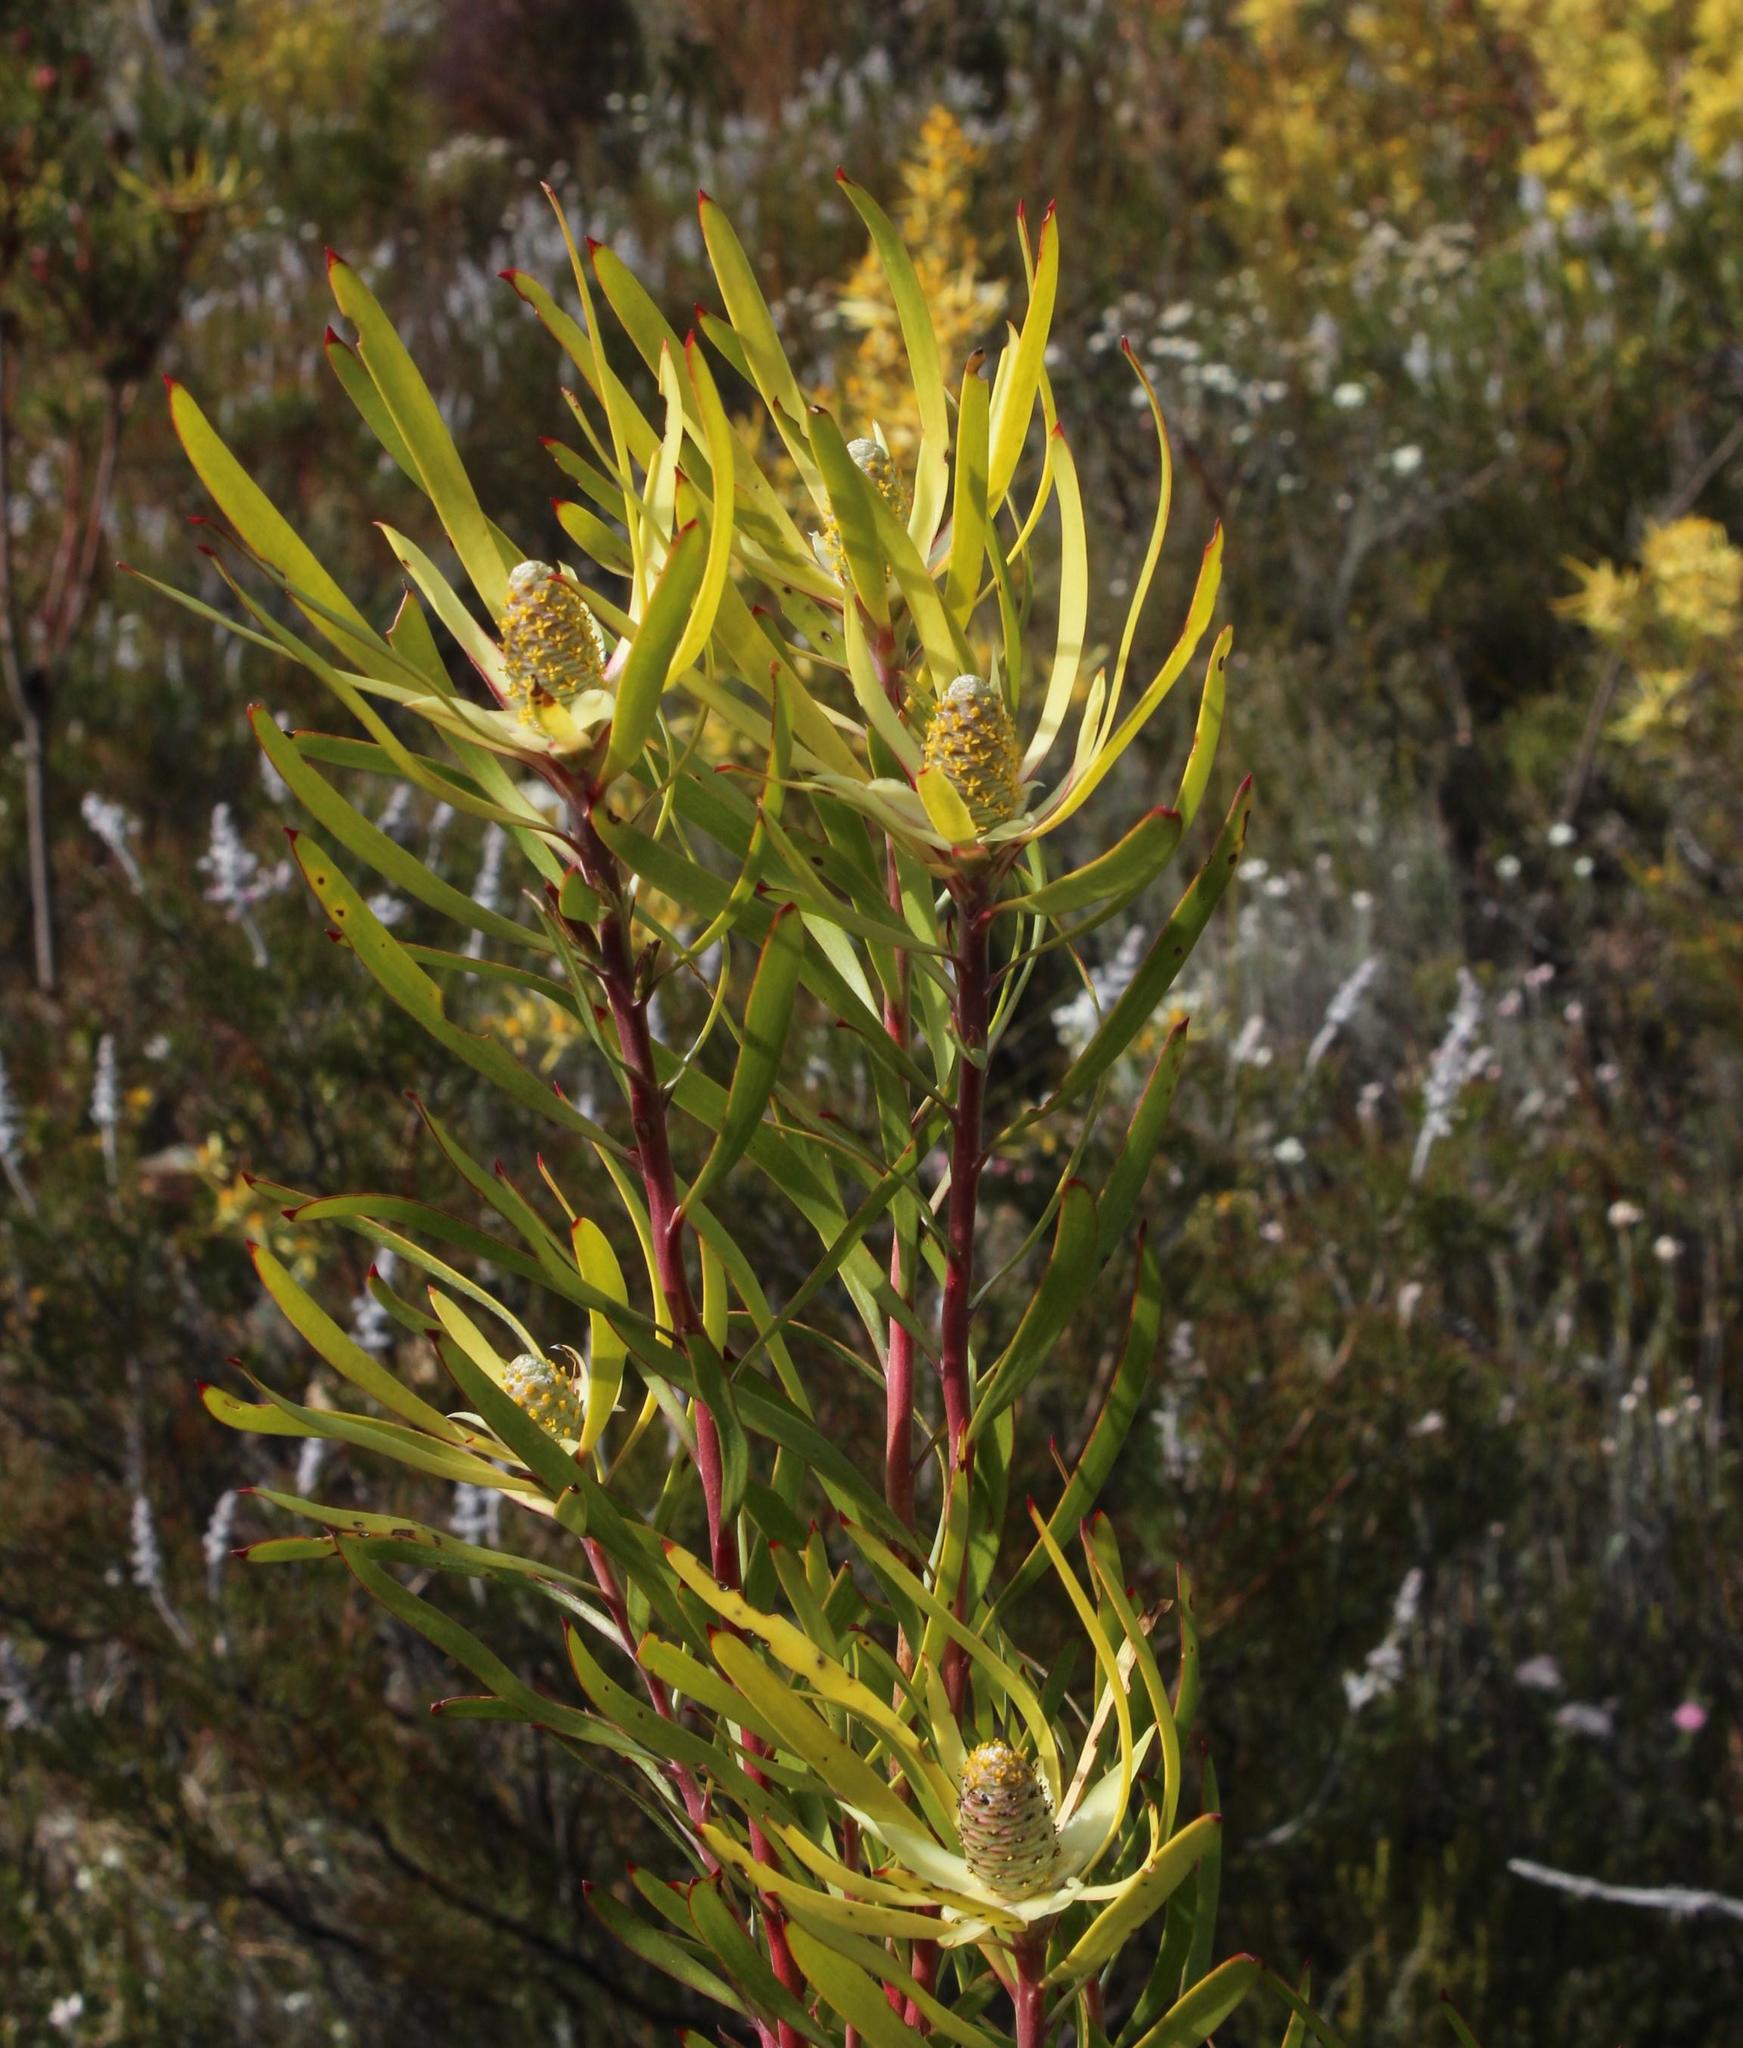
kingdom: Plantae
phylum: Tracheophyta
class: Magnoliopsida
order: Proteales
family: Proteaceae
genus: Leucadendron
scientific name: Leucadendron eucalyptifolium
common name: Gum-leaved conebush
